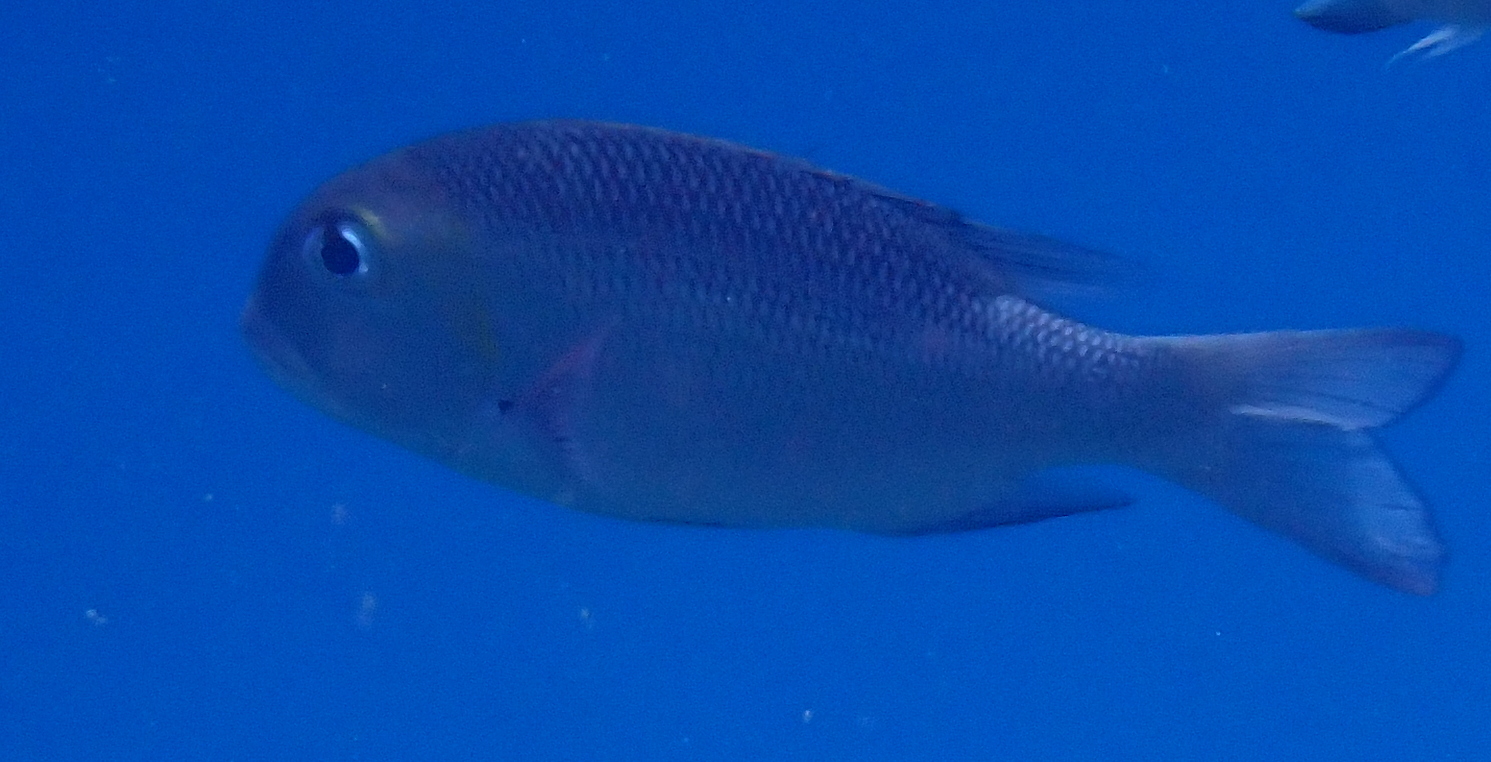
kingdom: Animalia
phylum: Chordata
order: Perciformes
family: Lethrinidae
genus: Monotaxis
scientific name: Monotaxis grandoculis
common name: Bigeye emperor
